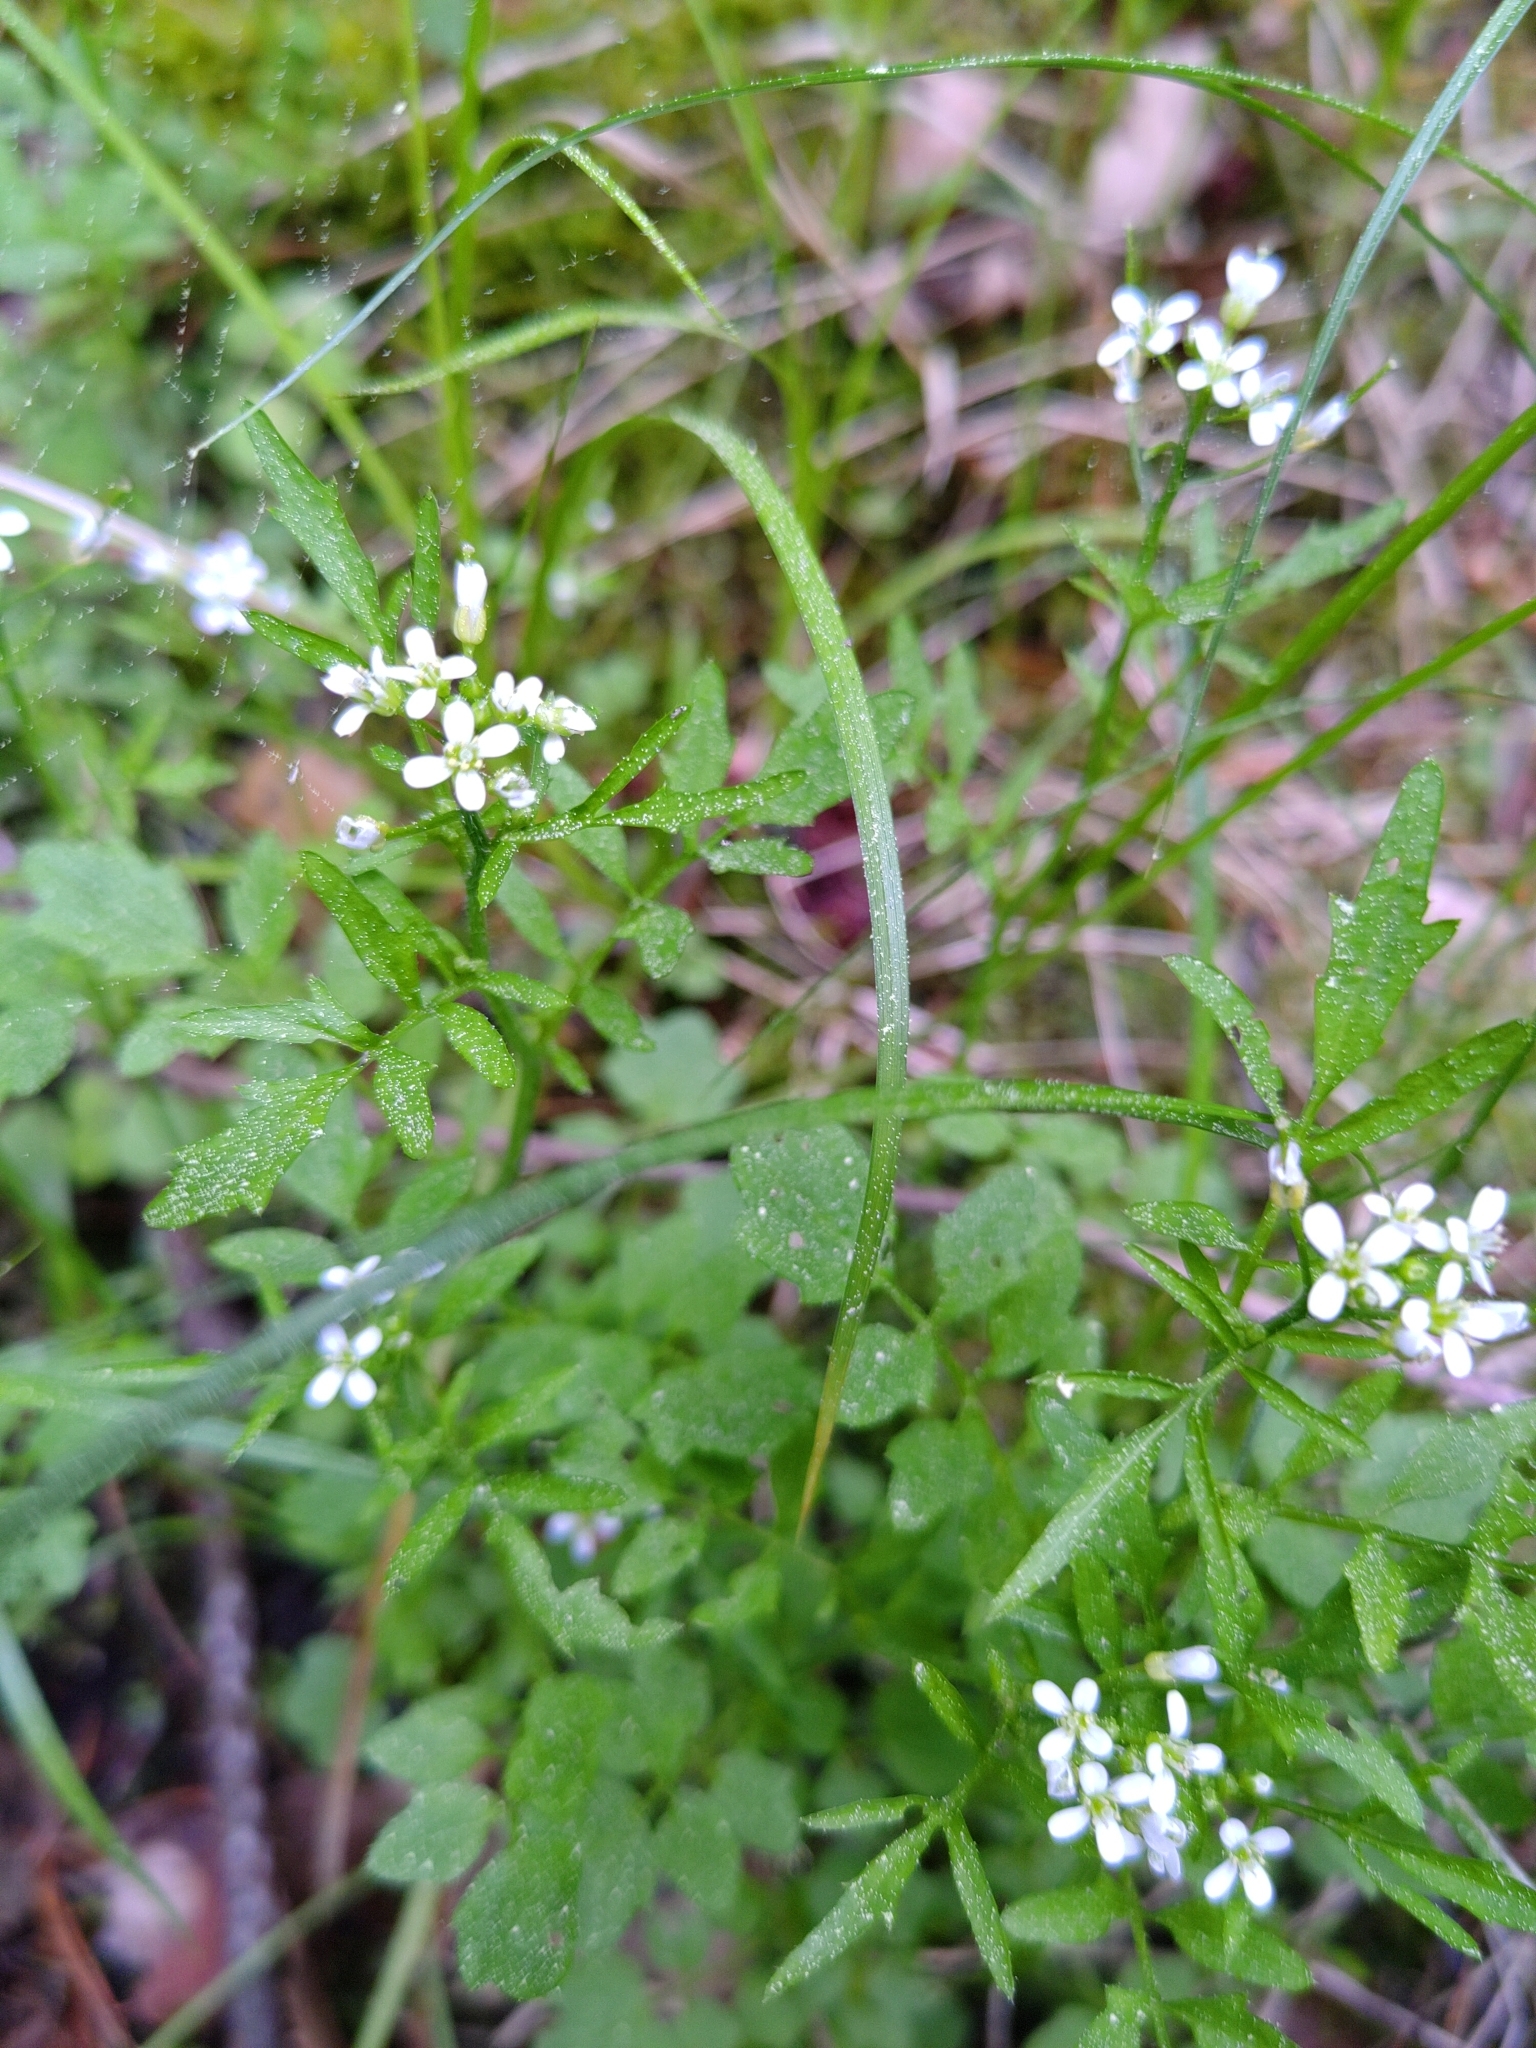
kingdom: Plantae
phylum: Tracheophyta
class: Magnoliopsida
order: Brassicales
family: Brassicaceae
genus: Cardamine
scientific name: Cardamine flexuosa
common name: Woodland bittercress
